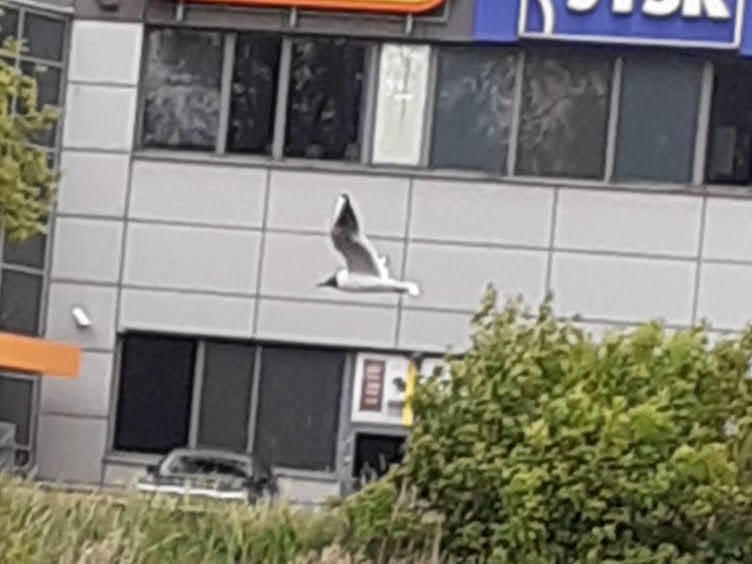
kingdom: Animalia
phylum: Chordata
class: Aves
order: Charadriiformes
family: Laridae
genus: Chroicocephalus
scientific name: Chroicocephalus ridibundus
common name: Black-headed gull
